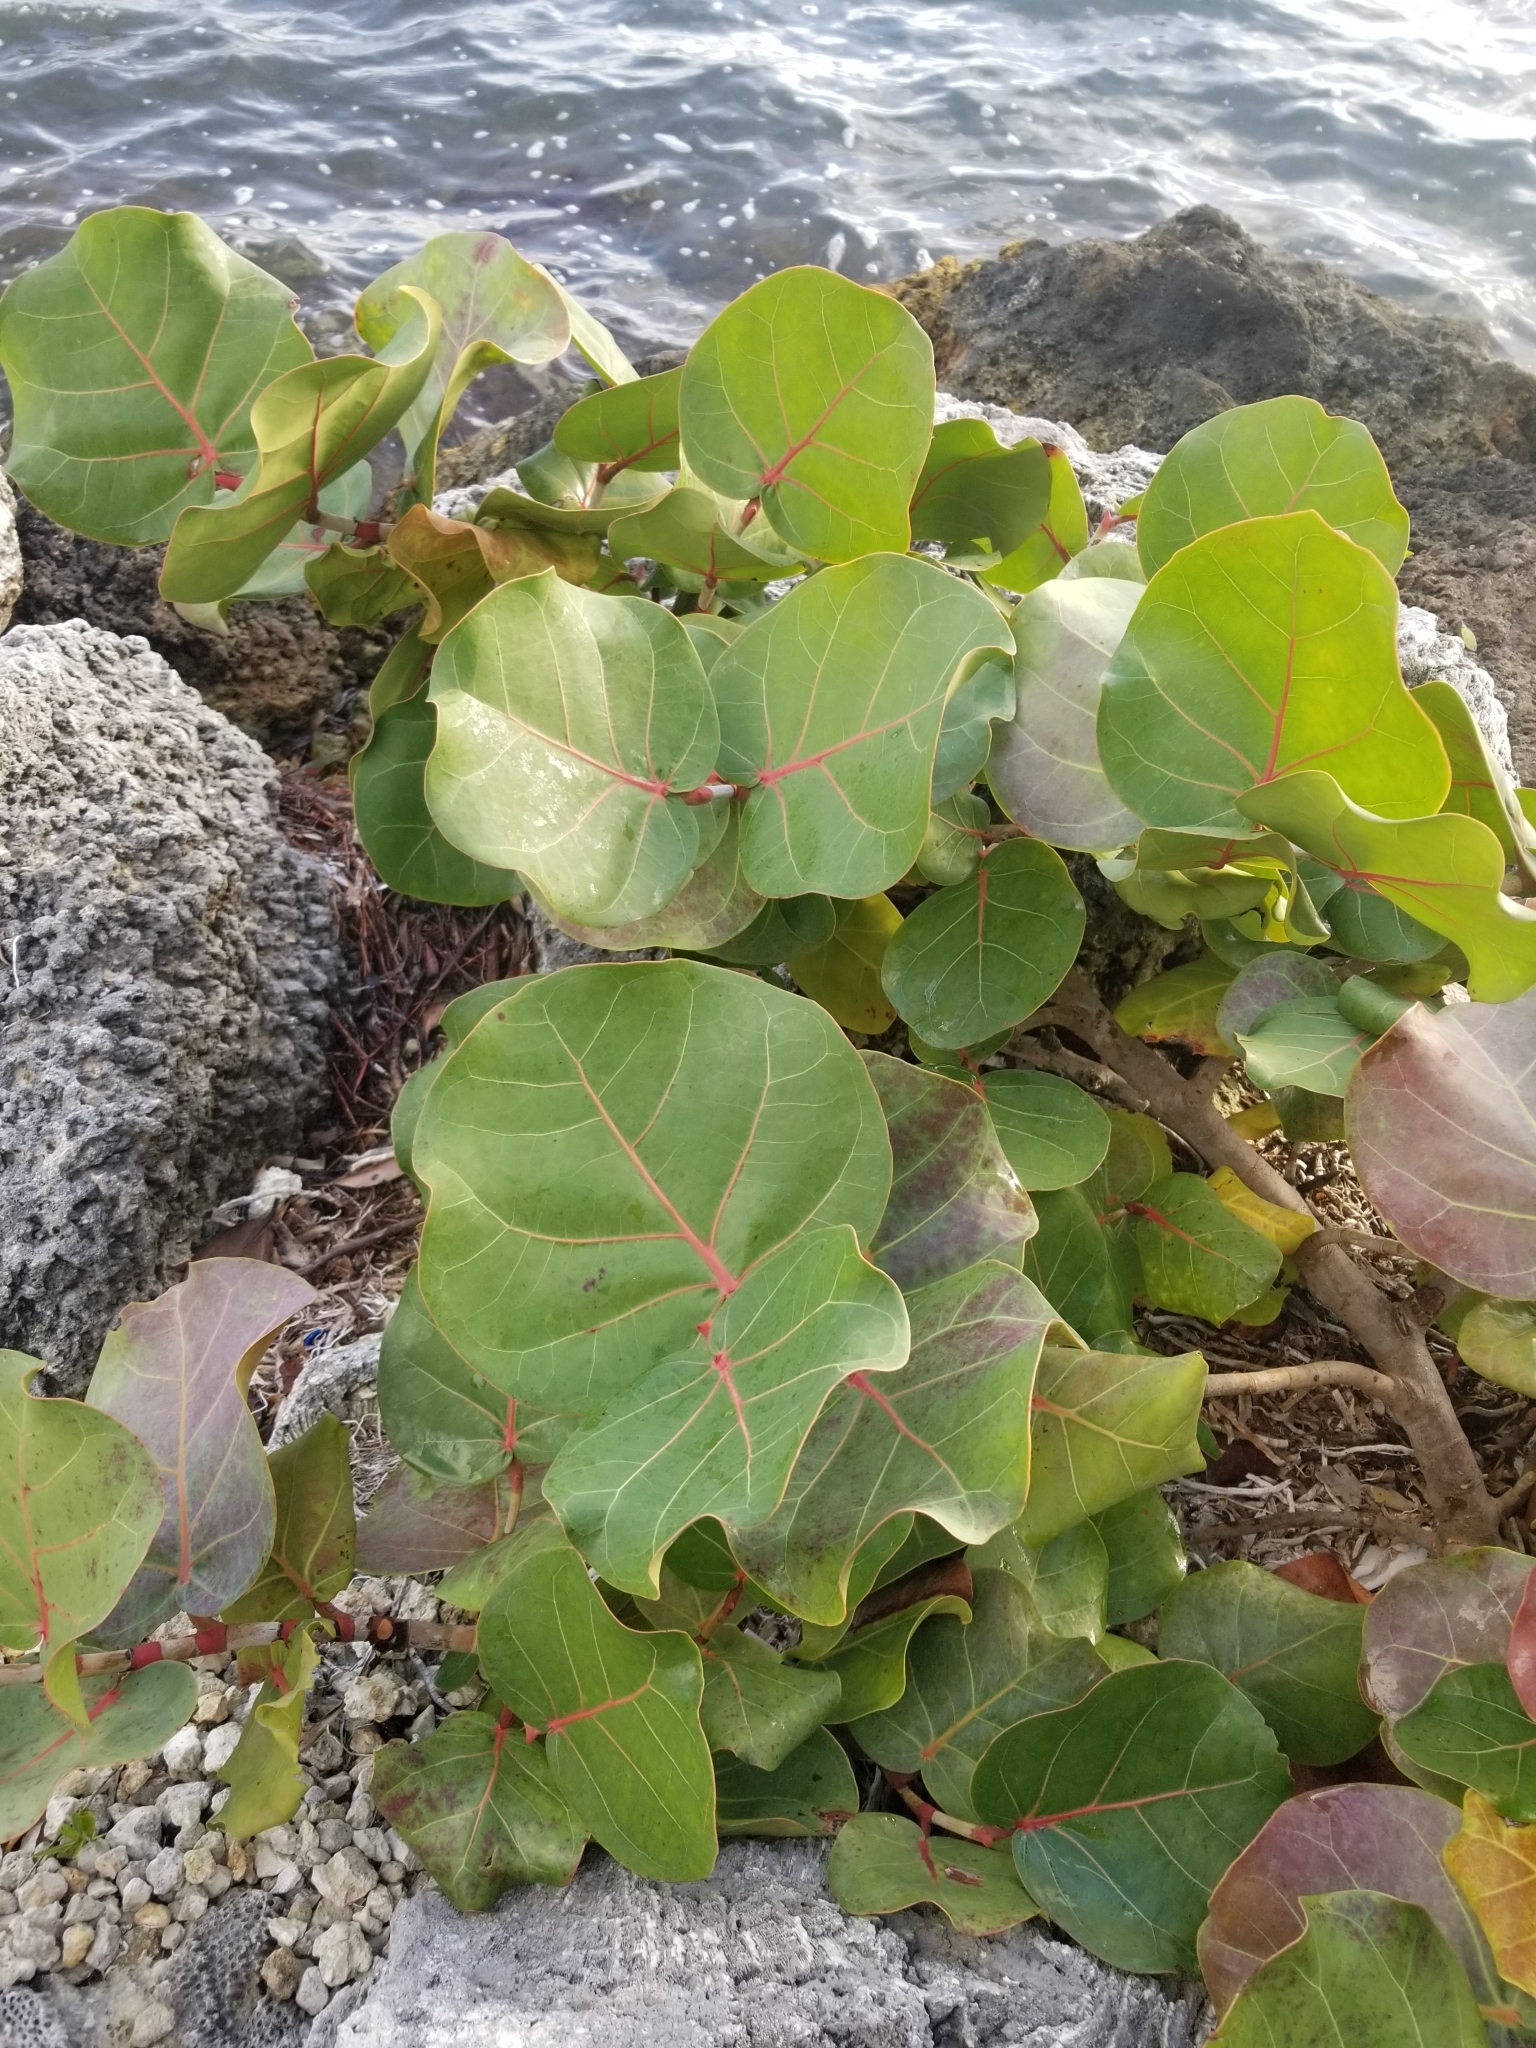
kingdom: Plantae
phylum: Tracheophyta
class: Magnoliopsida
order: Caryophyllales
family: Polygonaceae
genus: Coccoloba
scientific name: Coccoloba uvifera
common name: Seagrape
